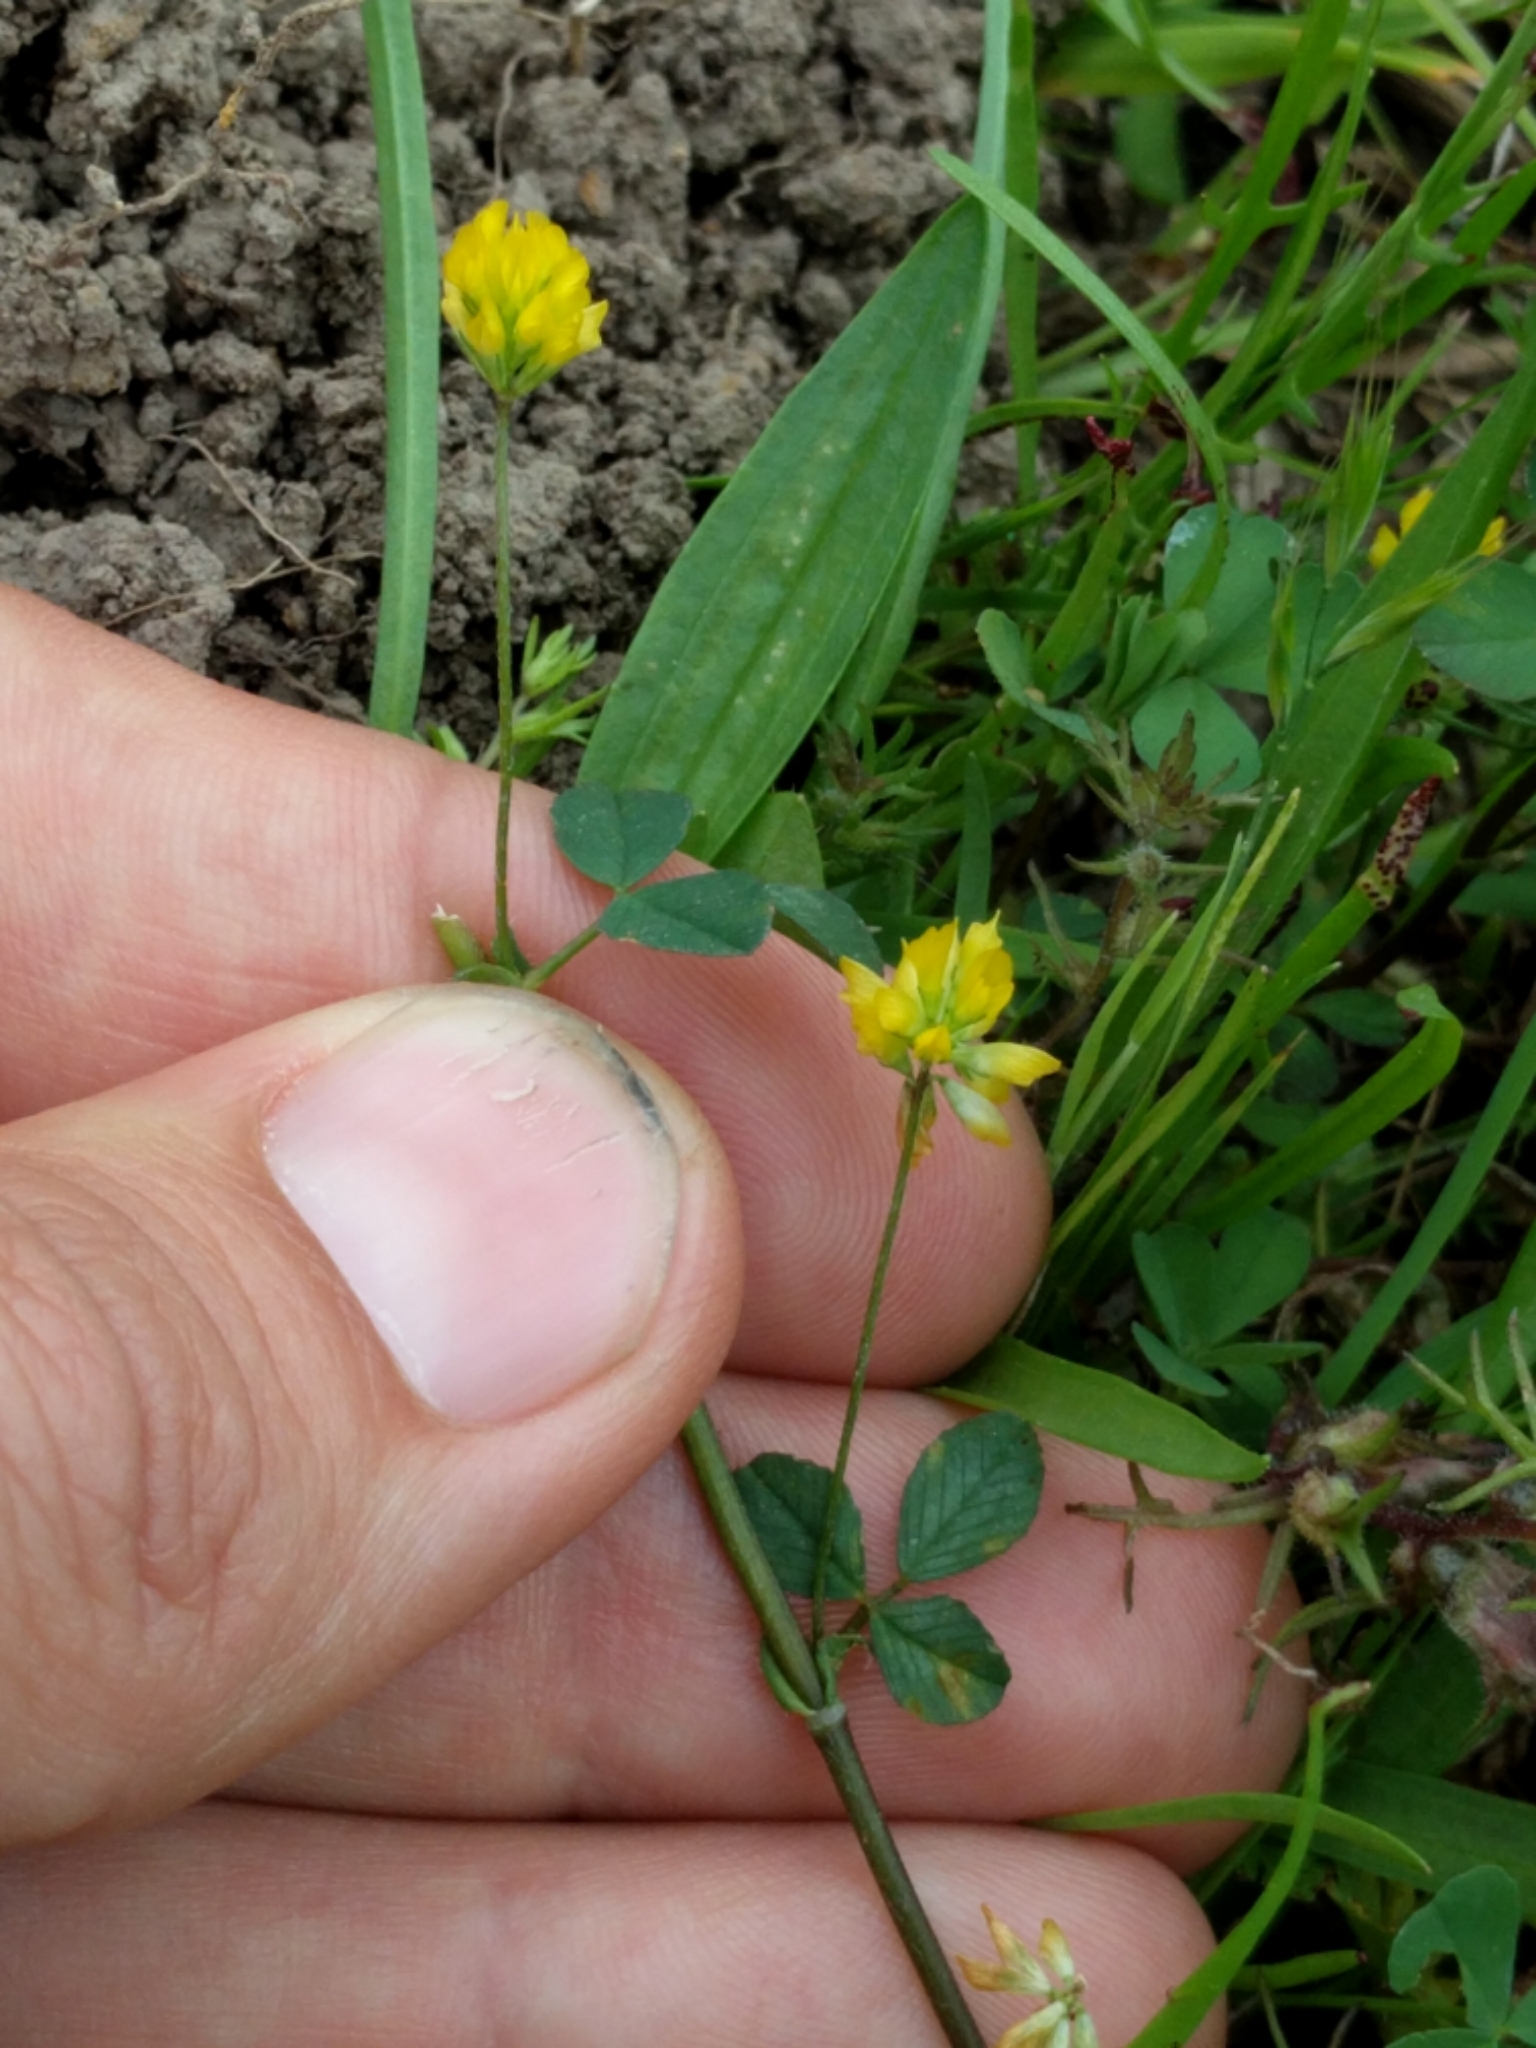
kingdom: Plantae
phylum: Tracheophyta
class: Magnoliopsida
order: Fabales
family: Fabaceae
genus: Trifolium
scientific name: Trifolium dubium
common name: Suckling clover
